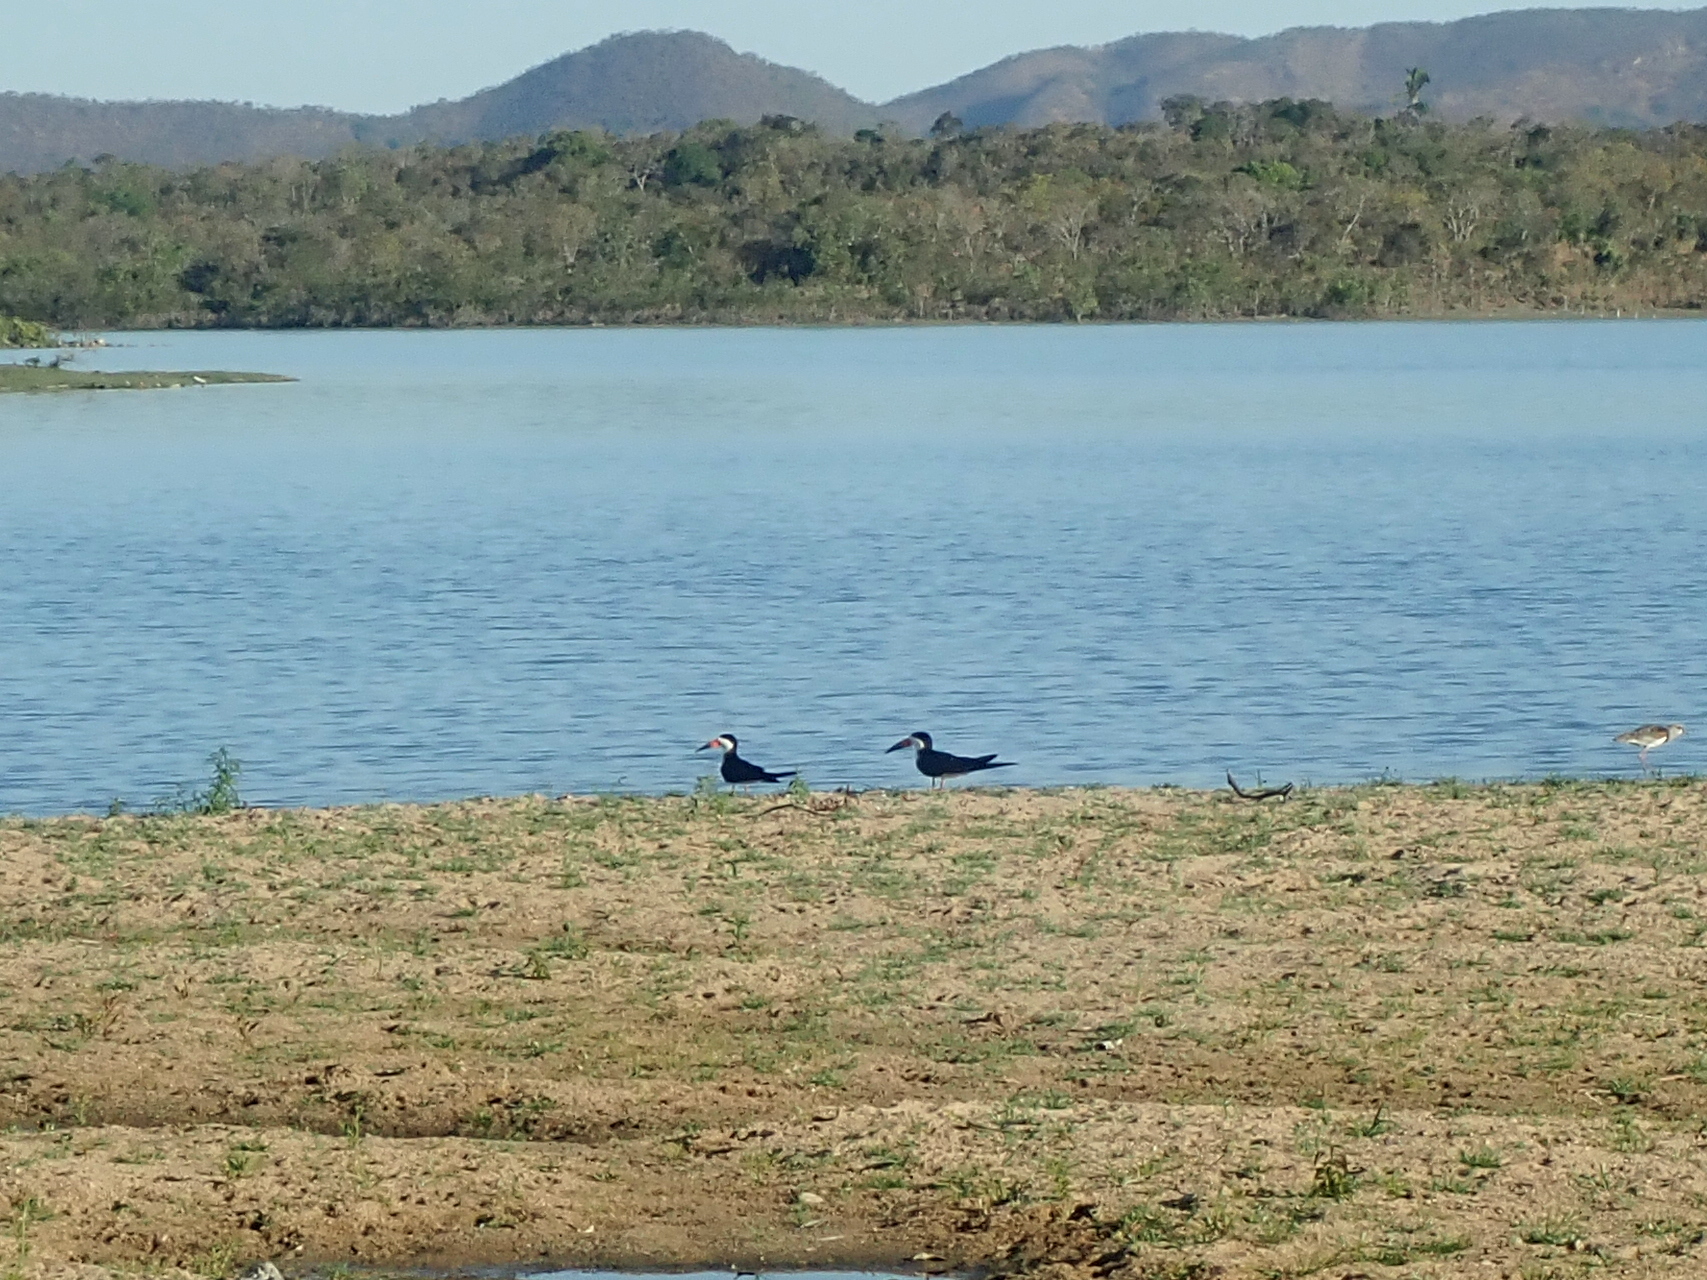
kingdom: Animalia
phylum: Chordata
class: Aves
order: Charadriiformes
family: Laridae
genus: Rynchops
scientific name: Rynchops niger
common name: Black skimmer
